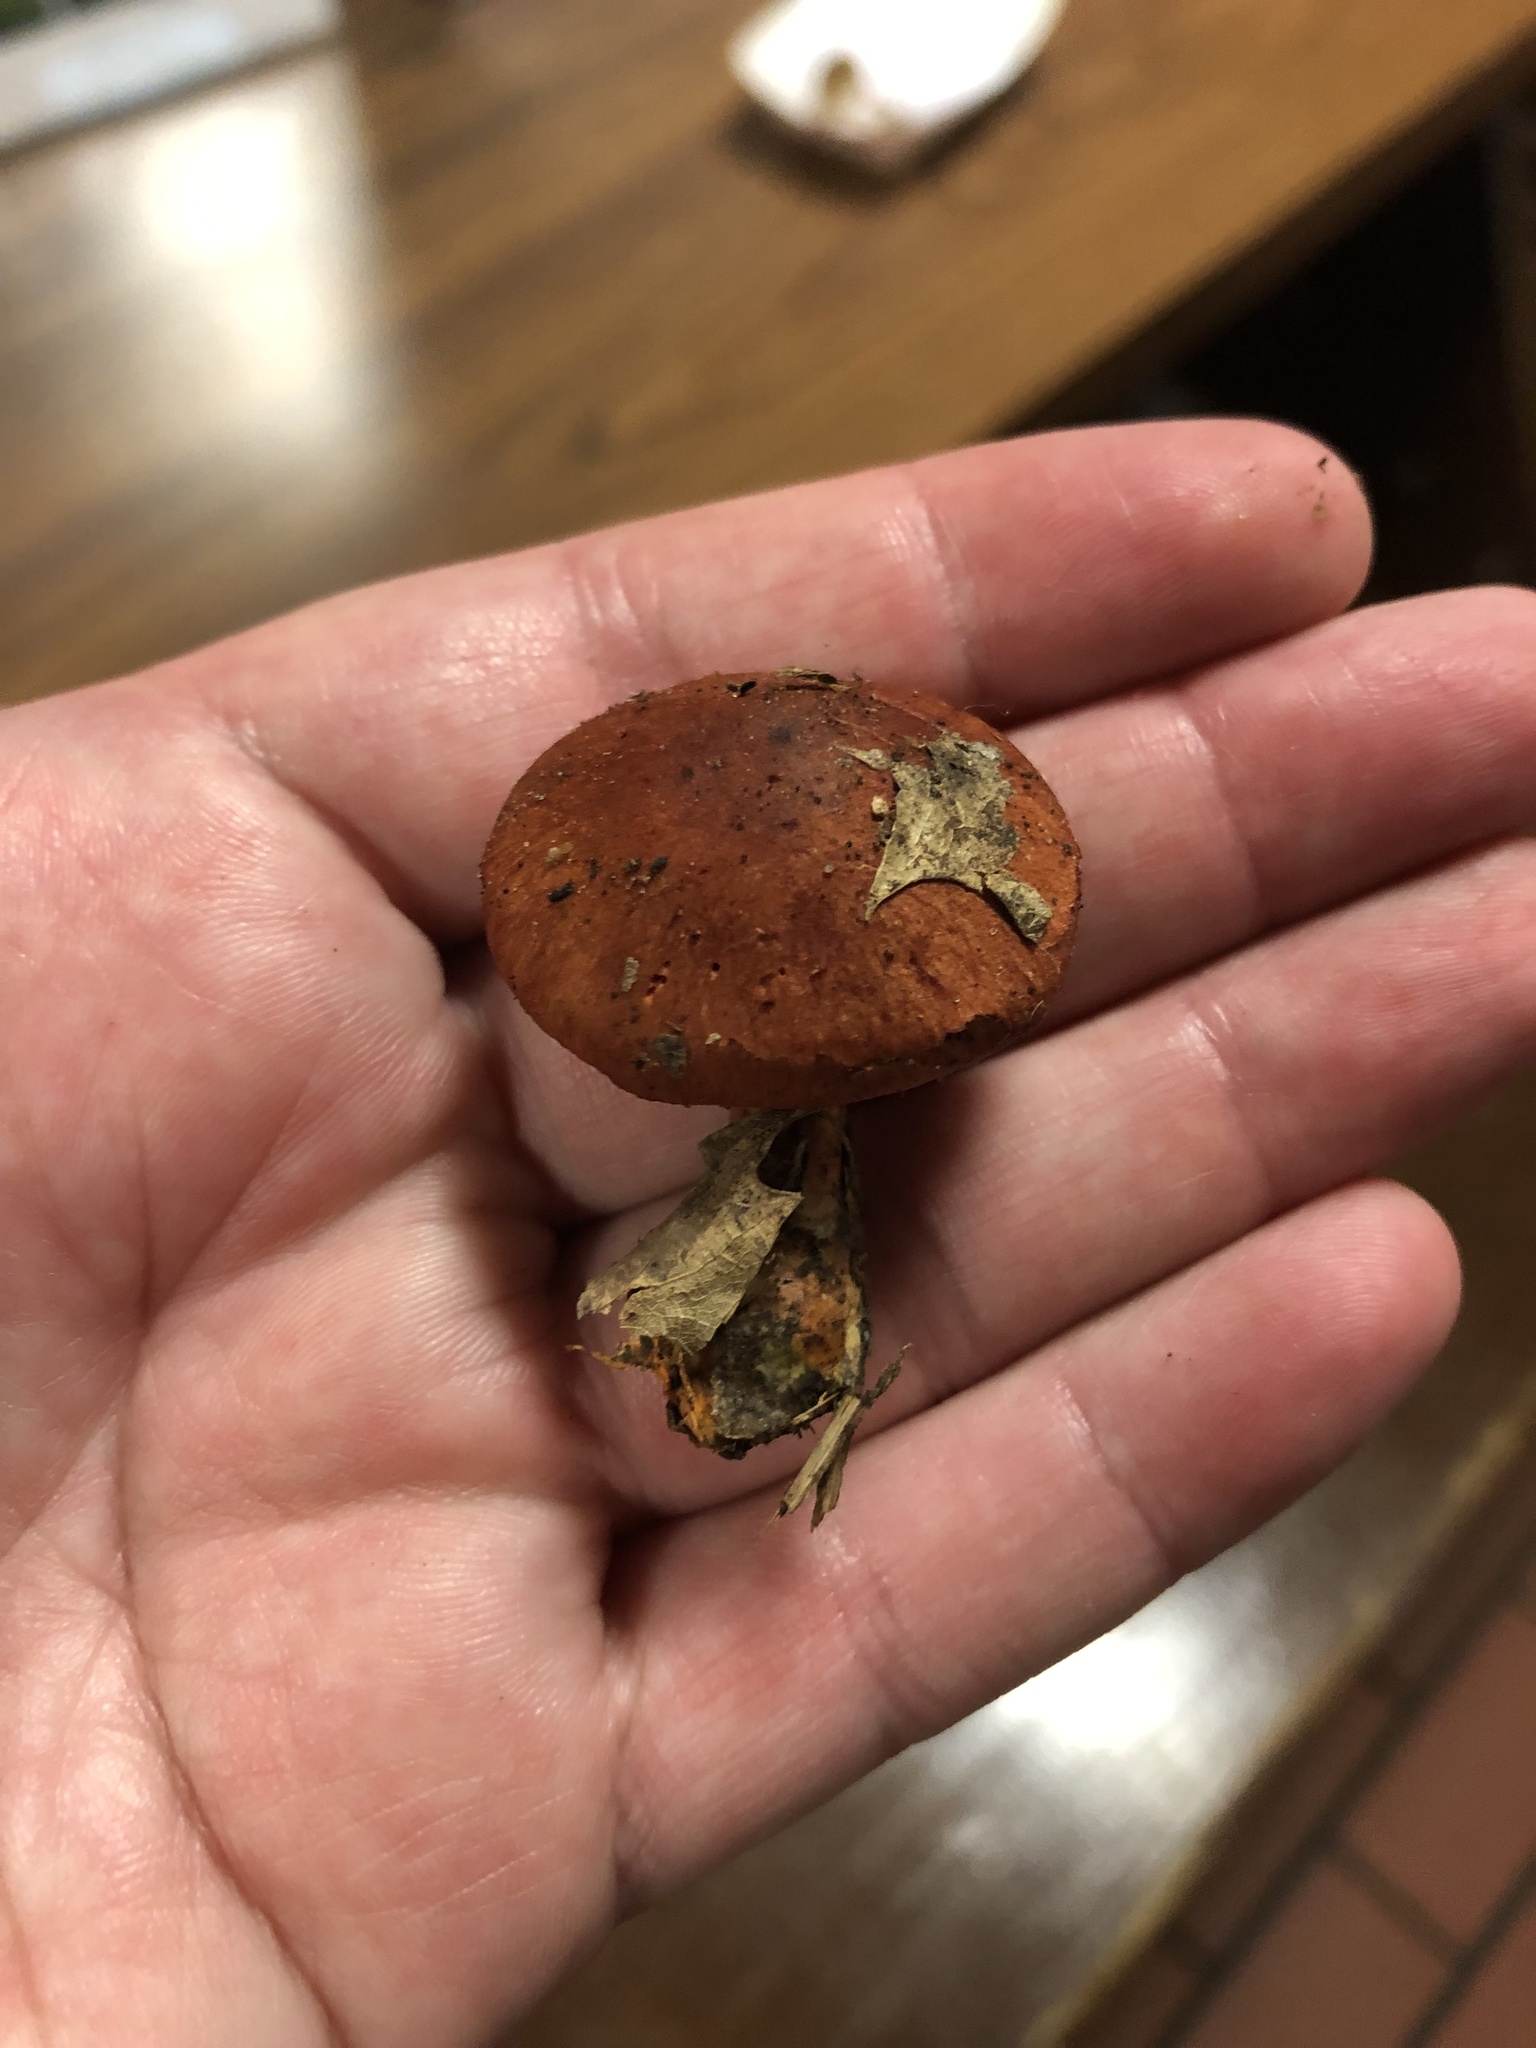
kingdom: Fungi
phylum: Basidiomycota
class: Agaricomycetes
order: Agaricales
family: Cortinariaceae
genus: Cortinarius
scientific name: Cortinarius harrisonii
